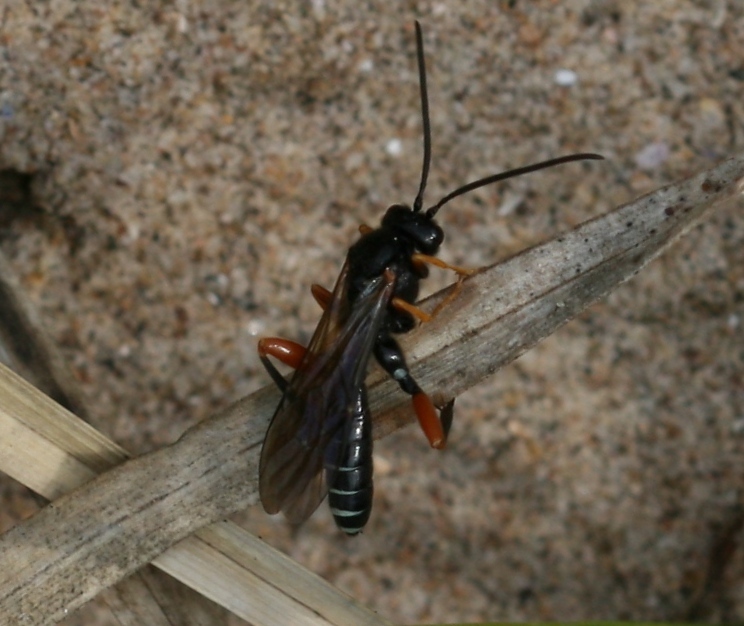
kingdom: Animalia
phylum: Arthropoda
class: Insecta
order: Hymenoptera
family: Ichneumonidae
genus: Acaenitus
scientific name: Acaenitus dubitator
